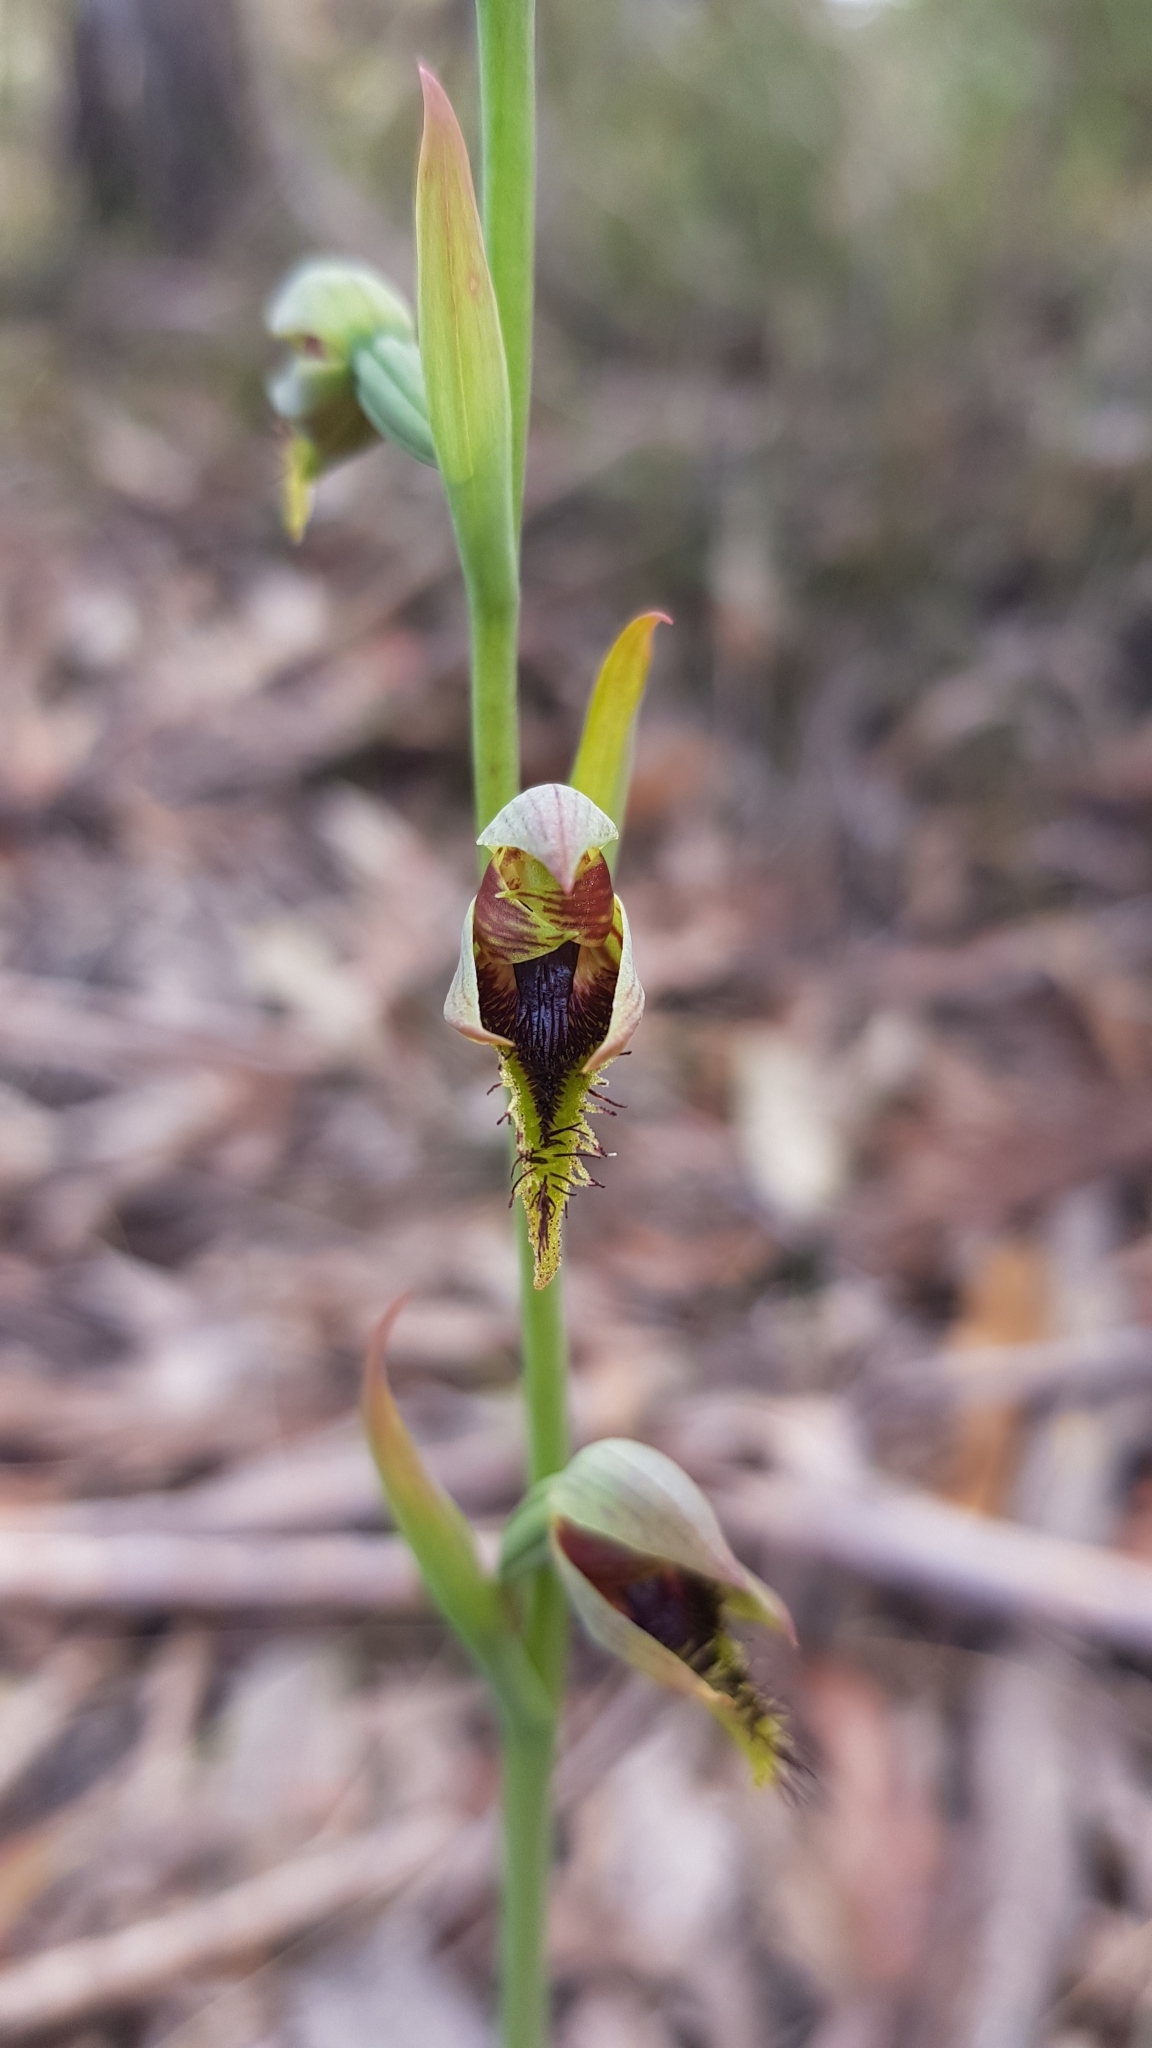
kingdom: Plantae
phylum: Tracheophyta
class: Liliopsida
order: Asparagales
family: Orchidaceae
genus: Calochilus
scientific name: Calochilus campestris
